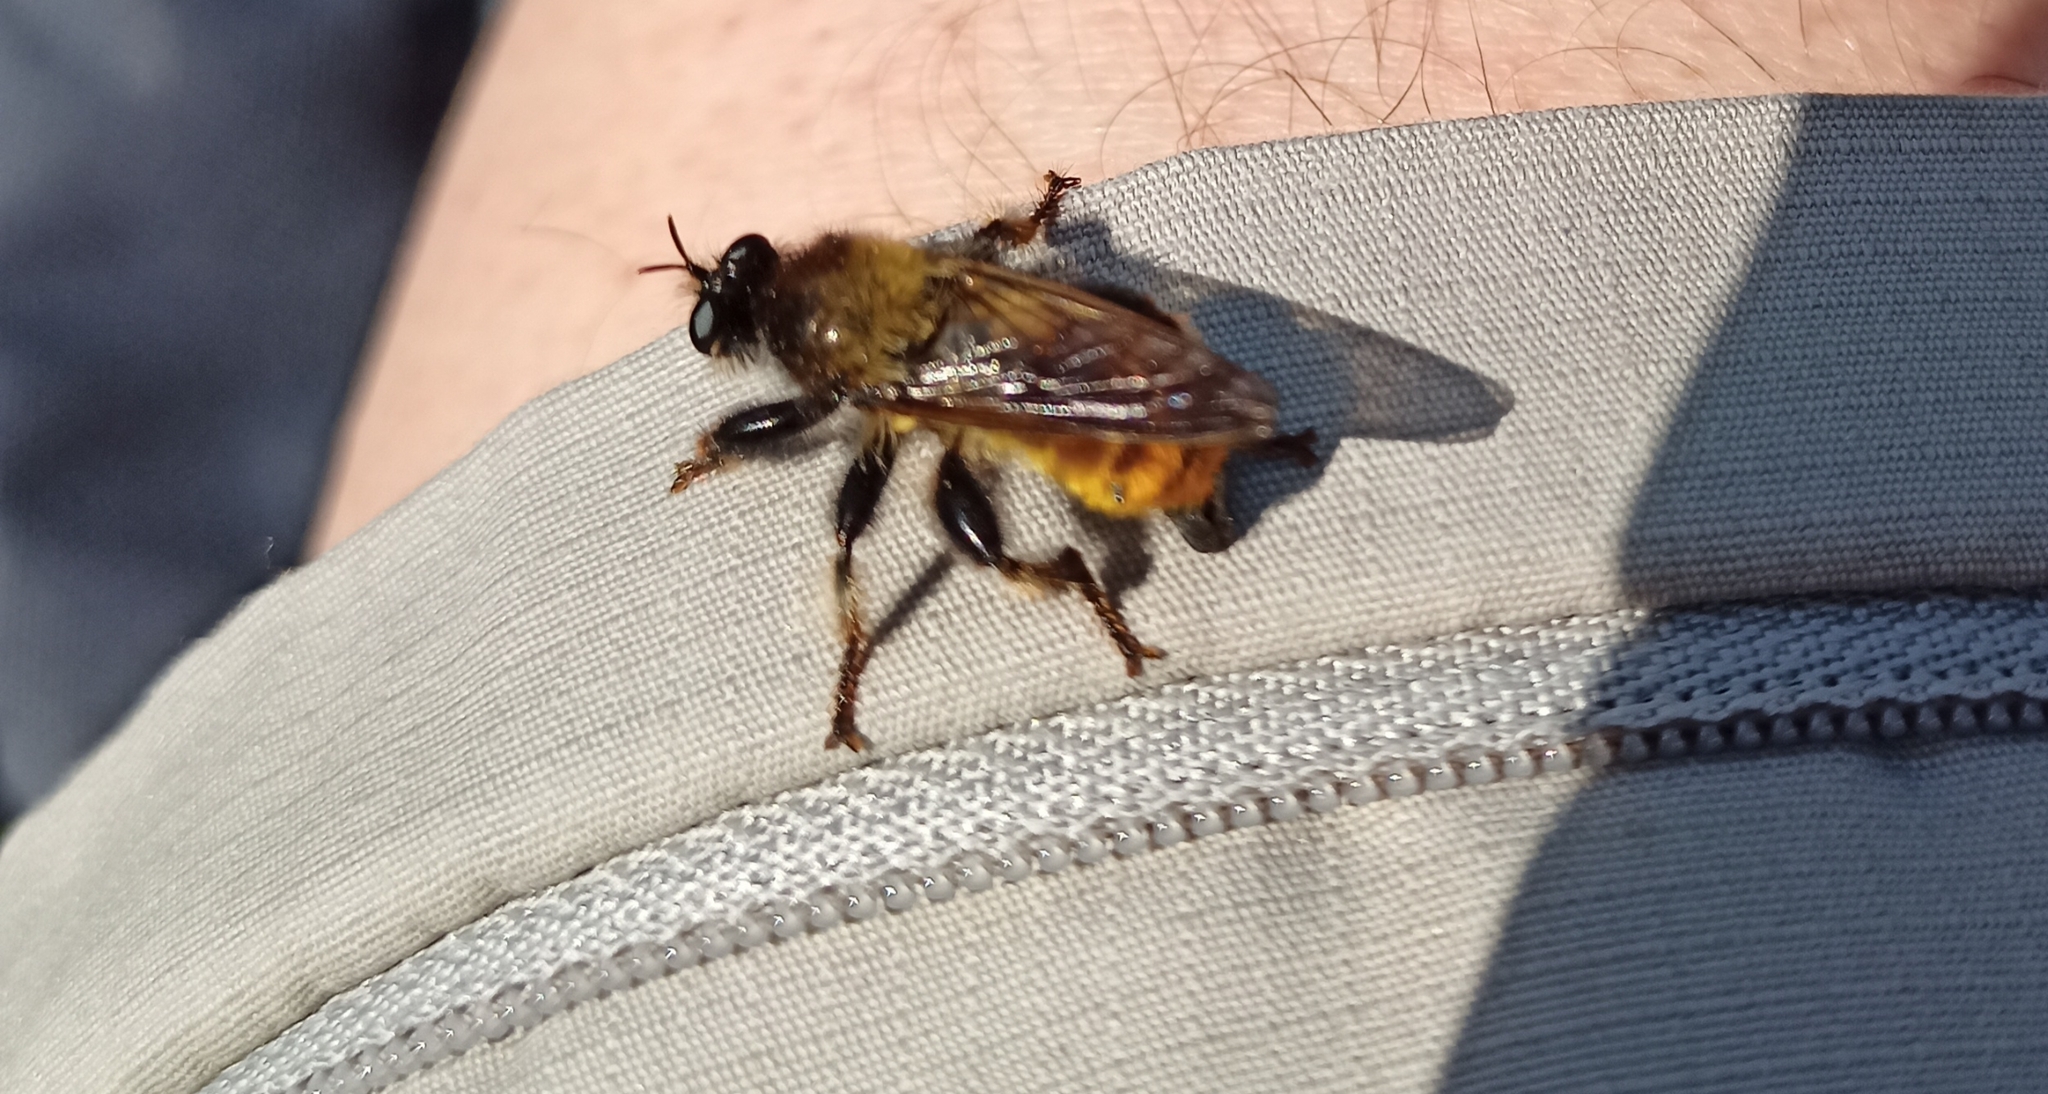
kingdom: Animalia
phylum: Arthropoda
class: Insecta
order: Diptera
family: Asilidae
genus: Laphria
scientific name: Laphria flava
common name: Bumblebee robberfly
